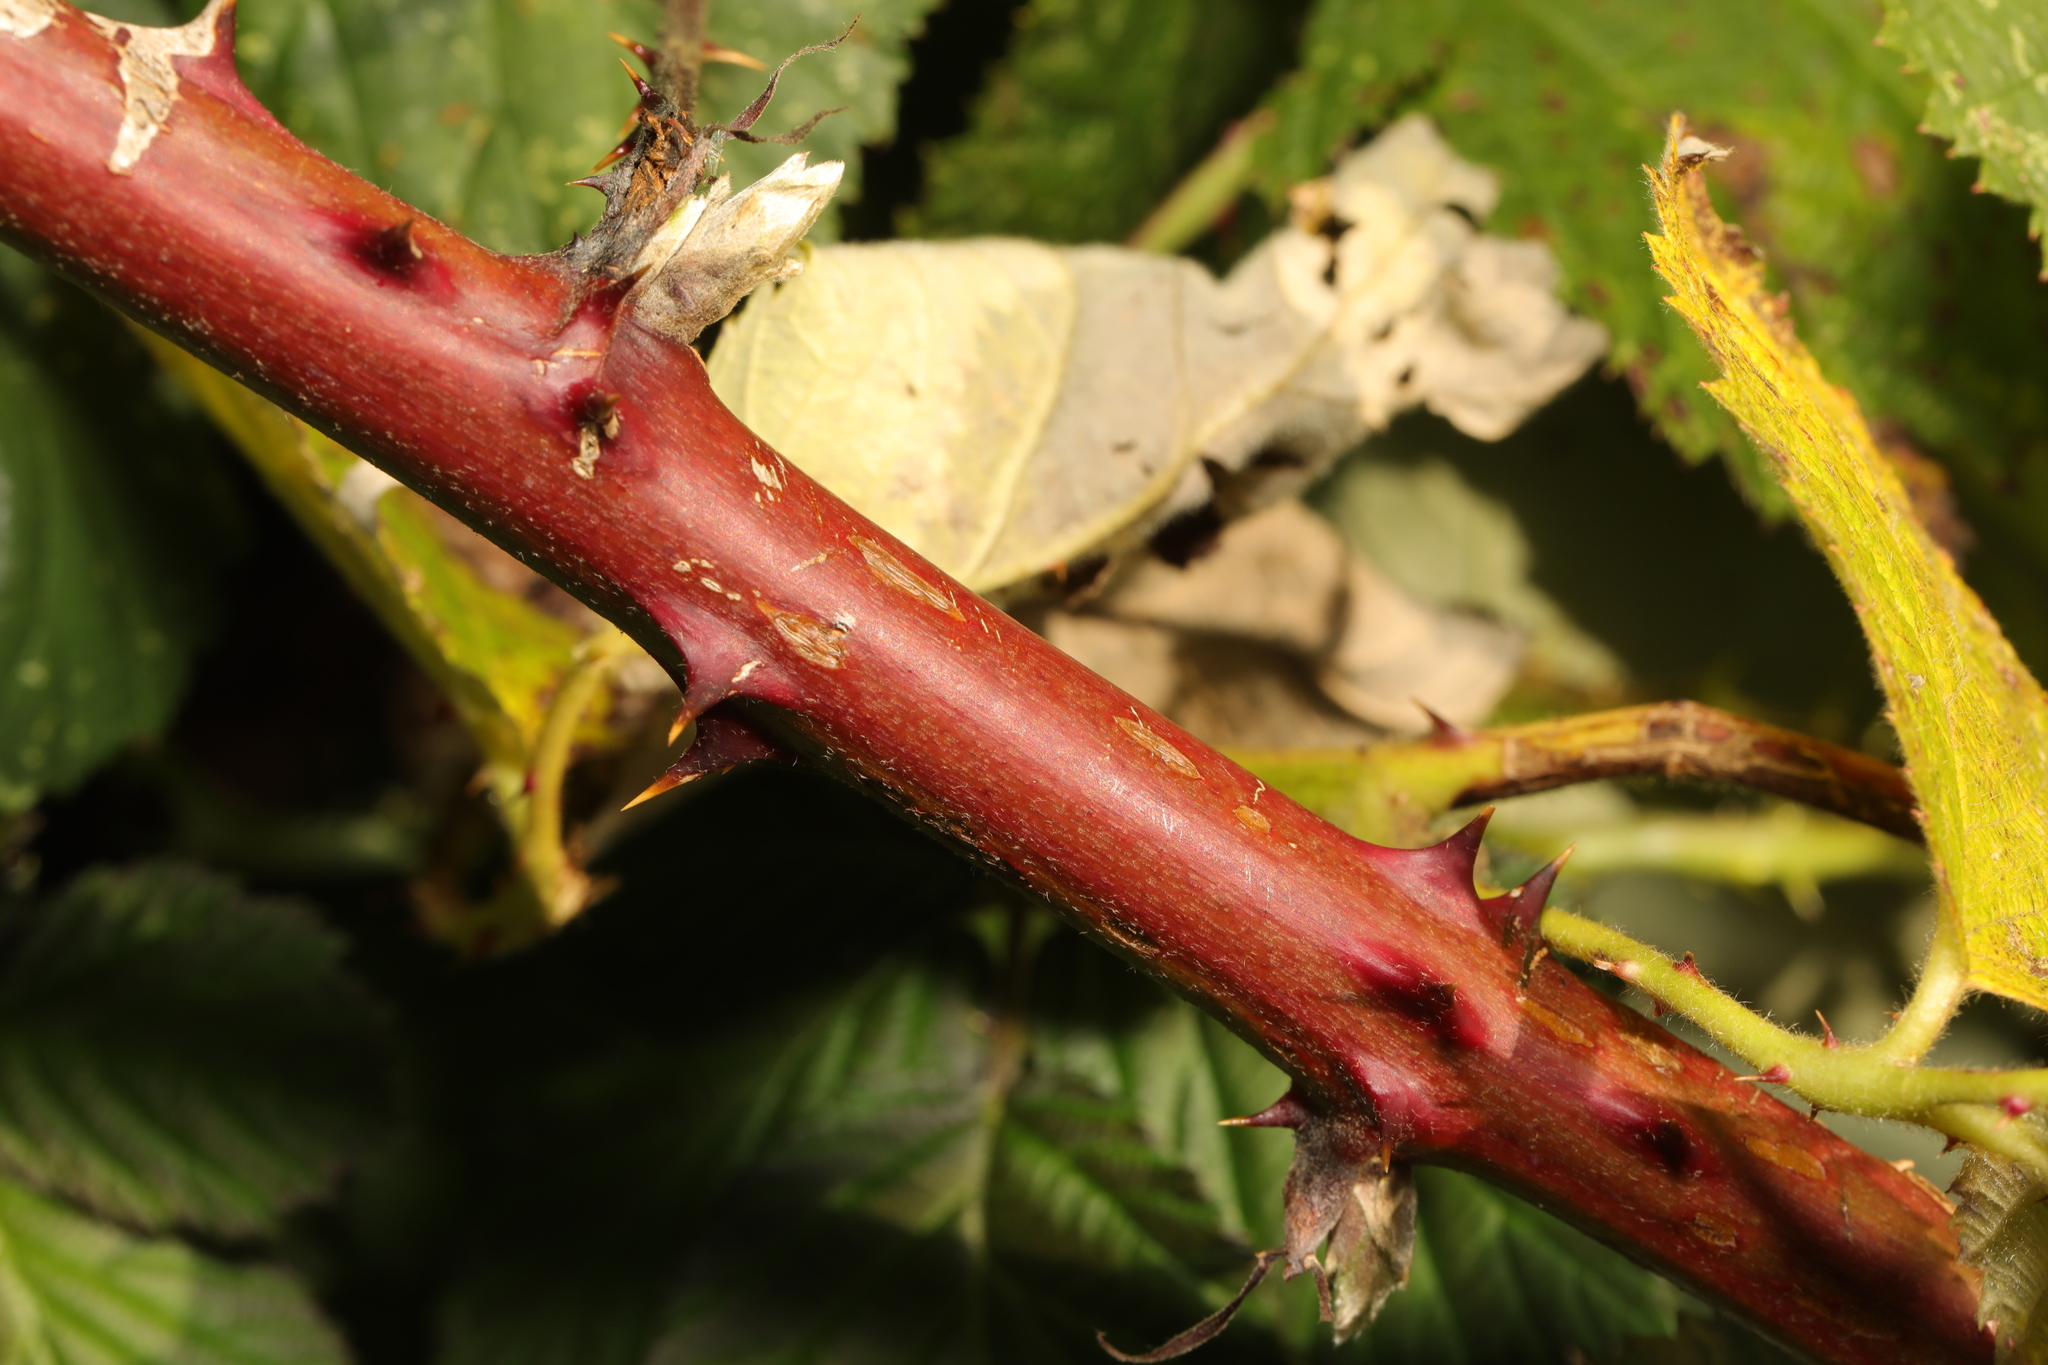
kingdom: Plantae
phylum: Tracheophyta
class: Magnoliopsida
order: Rosales
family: Rosaceae
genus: Rubus
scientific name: Rubus armeniacus
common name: Himalayan blackberry
